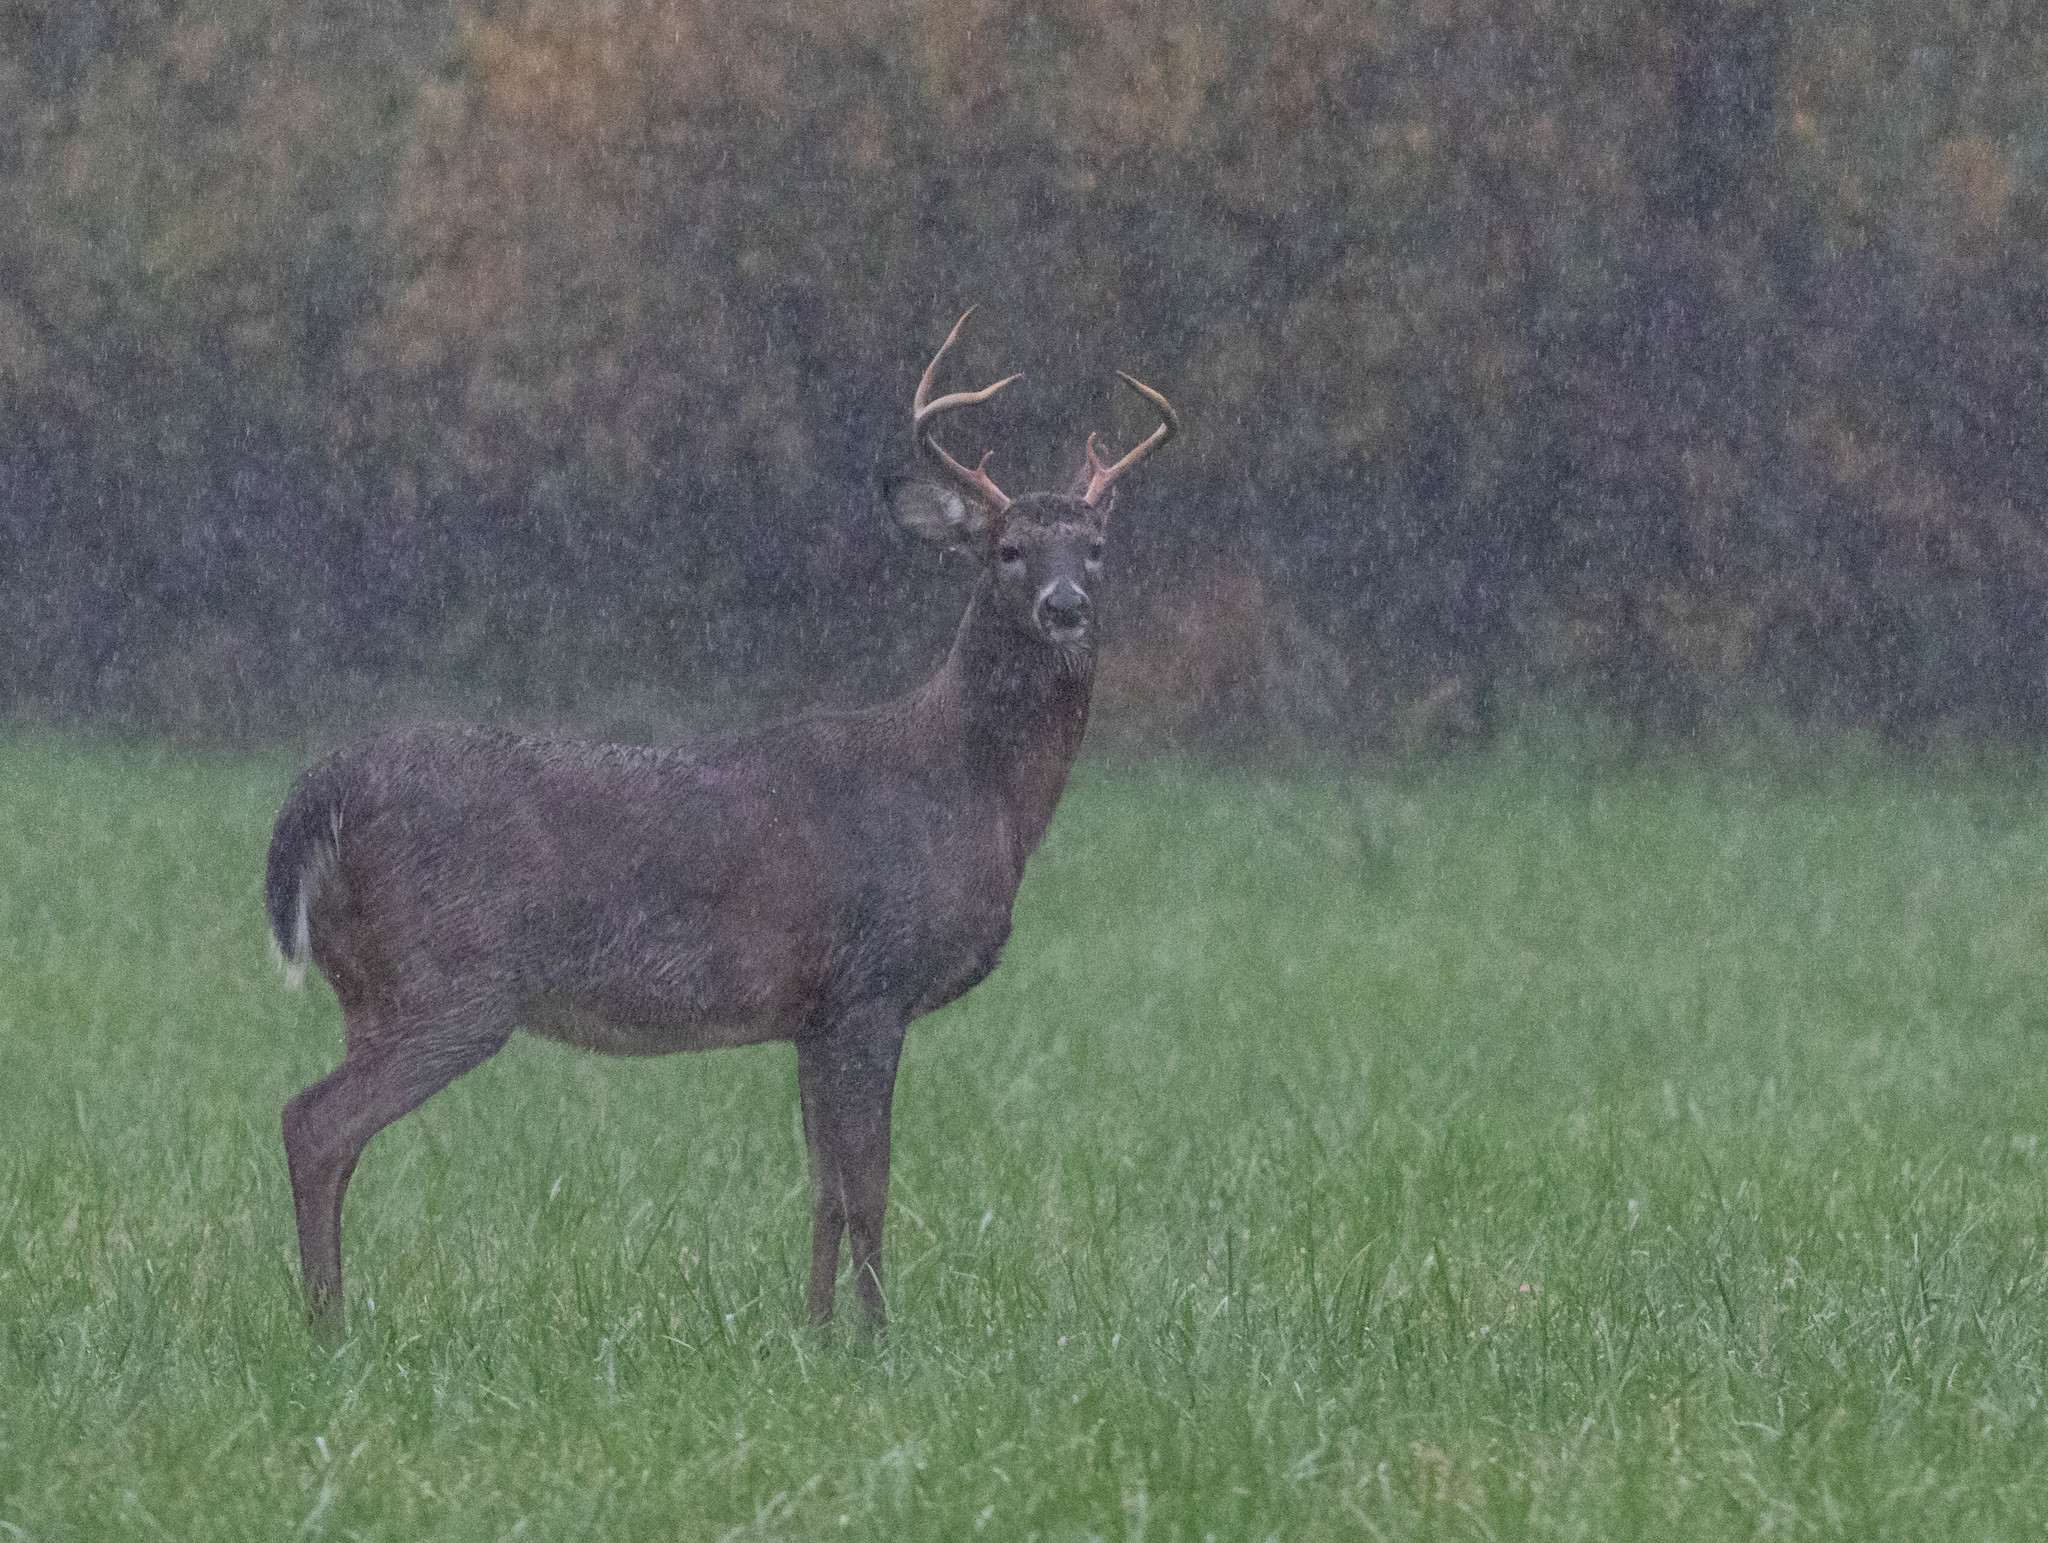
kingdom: Animalia
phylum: Chordata
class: Mammalia
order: Artiodactyla
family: Cervidae
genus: Odocoileus
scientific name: Odocoileus virginianus
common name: White-tailed deer
